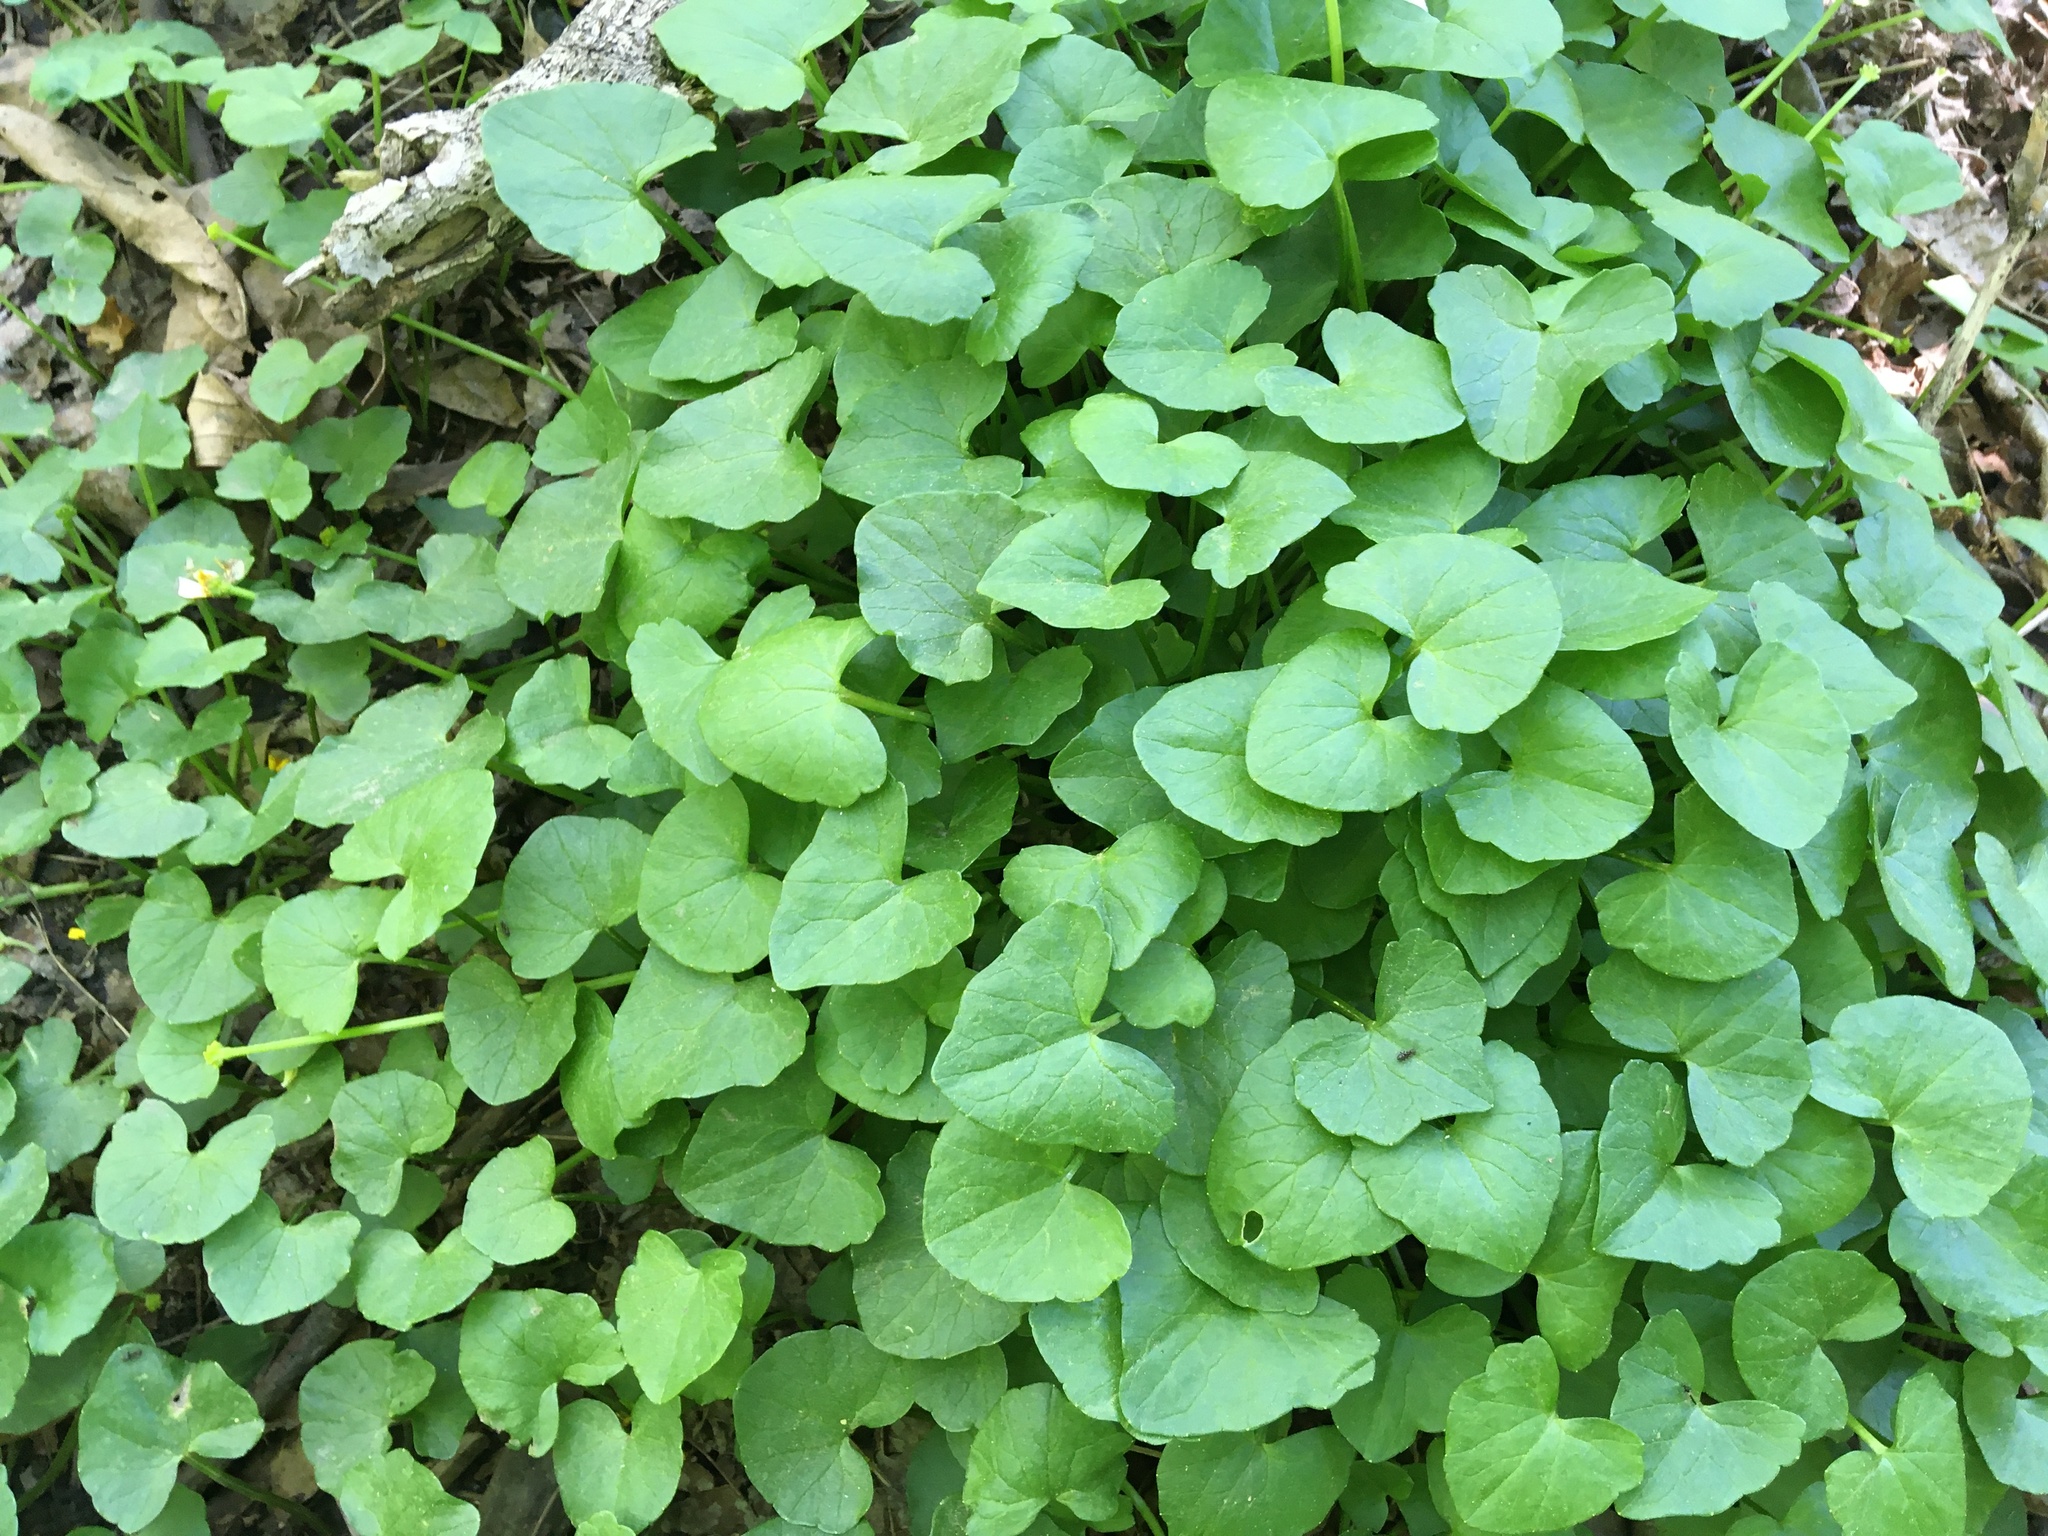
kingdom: Plantae
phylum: Tracheophyta
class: Magnoliopsida
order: Ranunculales
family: Ranunculaceae
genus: Ficaria
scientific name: Ficaria verna
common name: Lesser celandine
